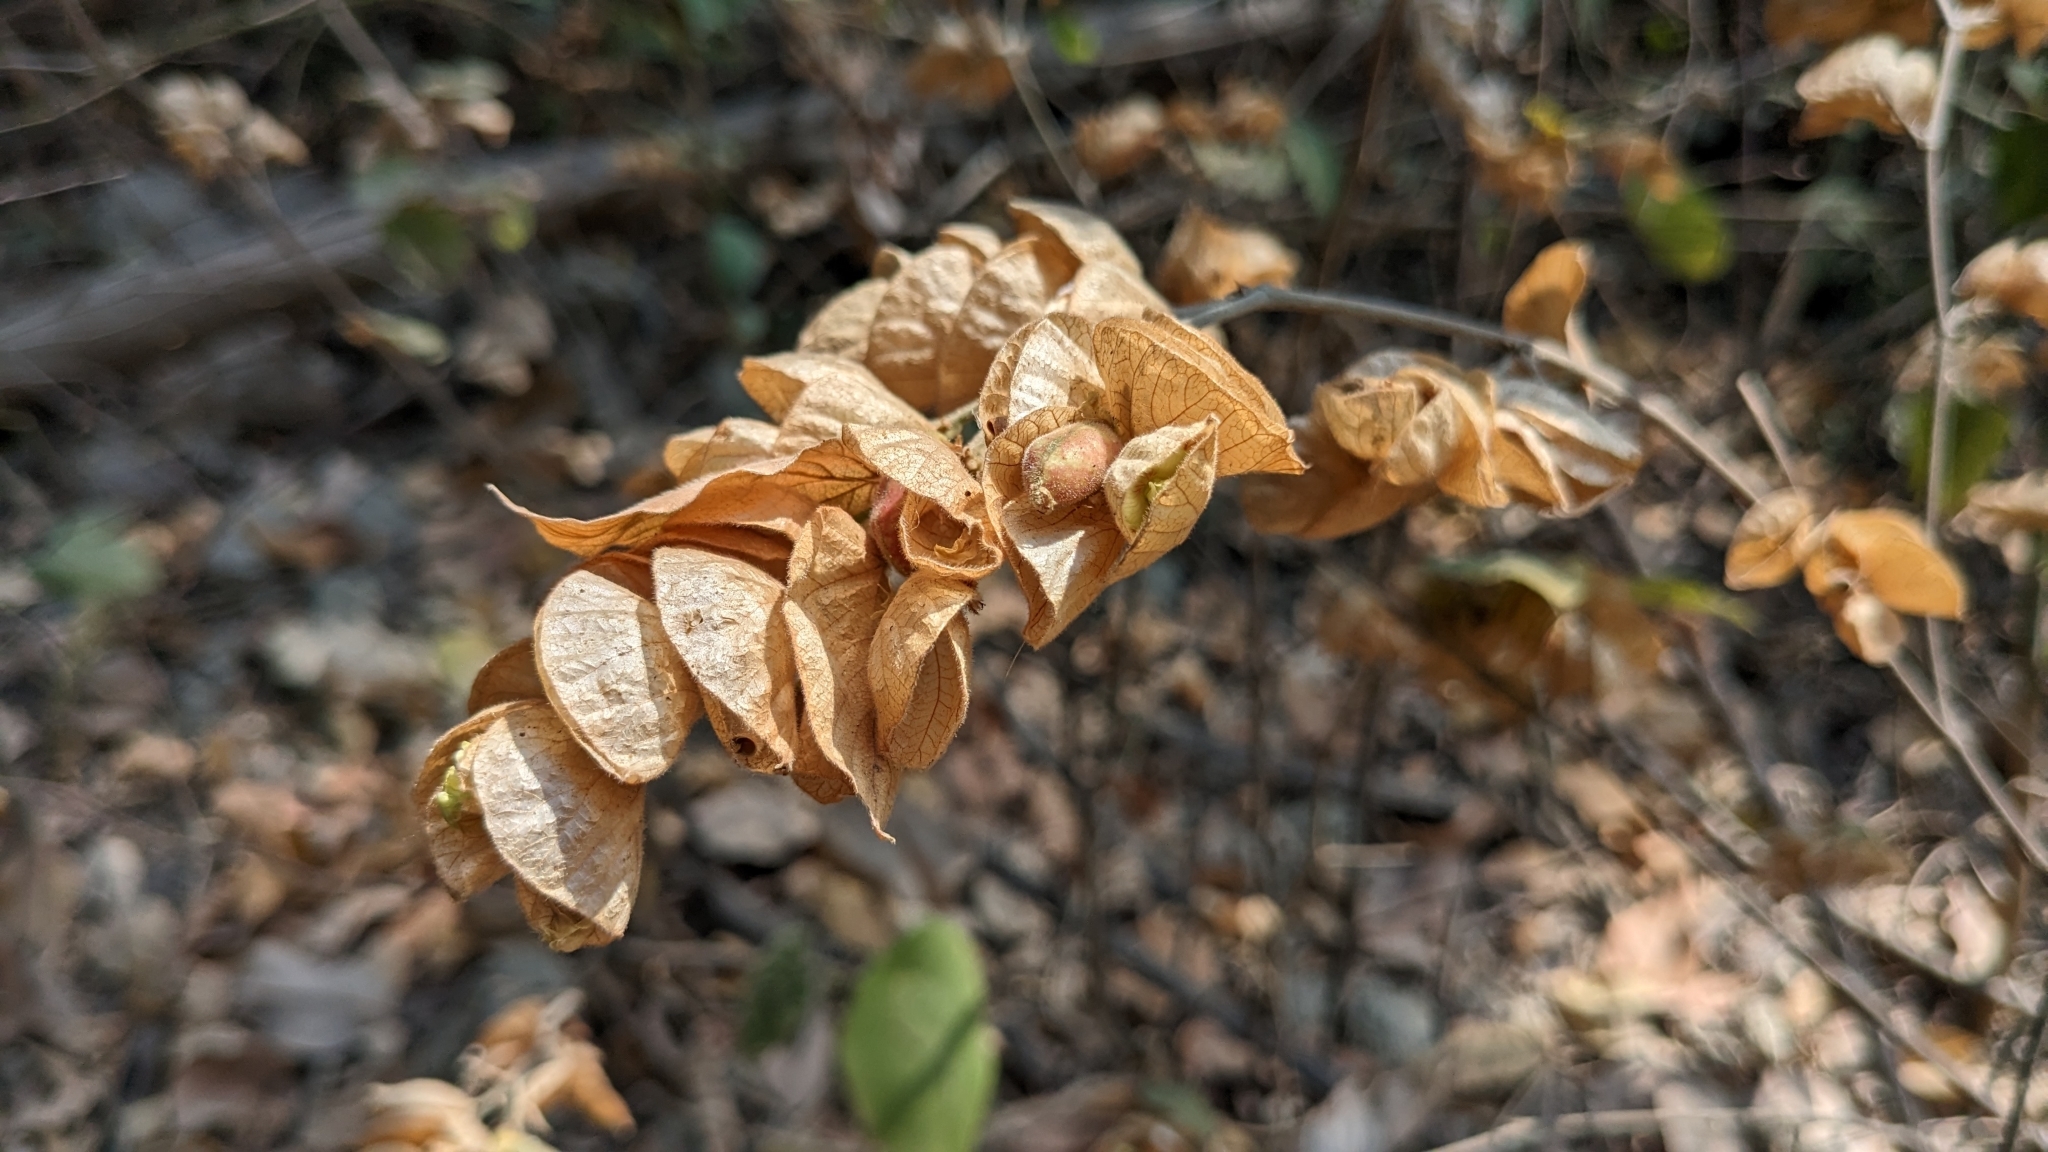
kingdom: Plantae
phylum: Tracheophyta
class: Magnoliopsida
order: Fabales
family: Fabaceae
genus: Flemingia
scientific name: Flemingia strobilifera
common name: Wild hops
